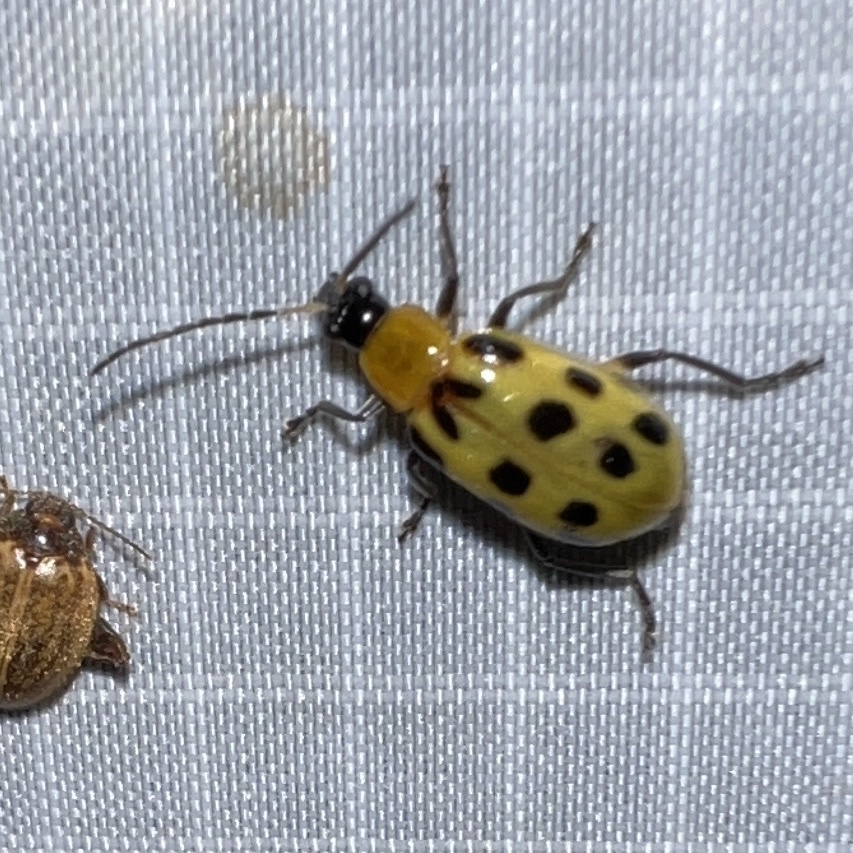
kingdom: Animalia
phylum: Arthropoda
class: Insecta
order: Coleoptera
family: Chrysomelidae
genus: Diabrotica
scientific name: Diabrotica undecimpunctata
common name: Spotted cucumber beetle
